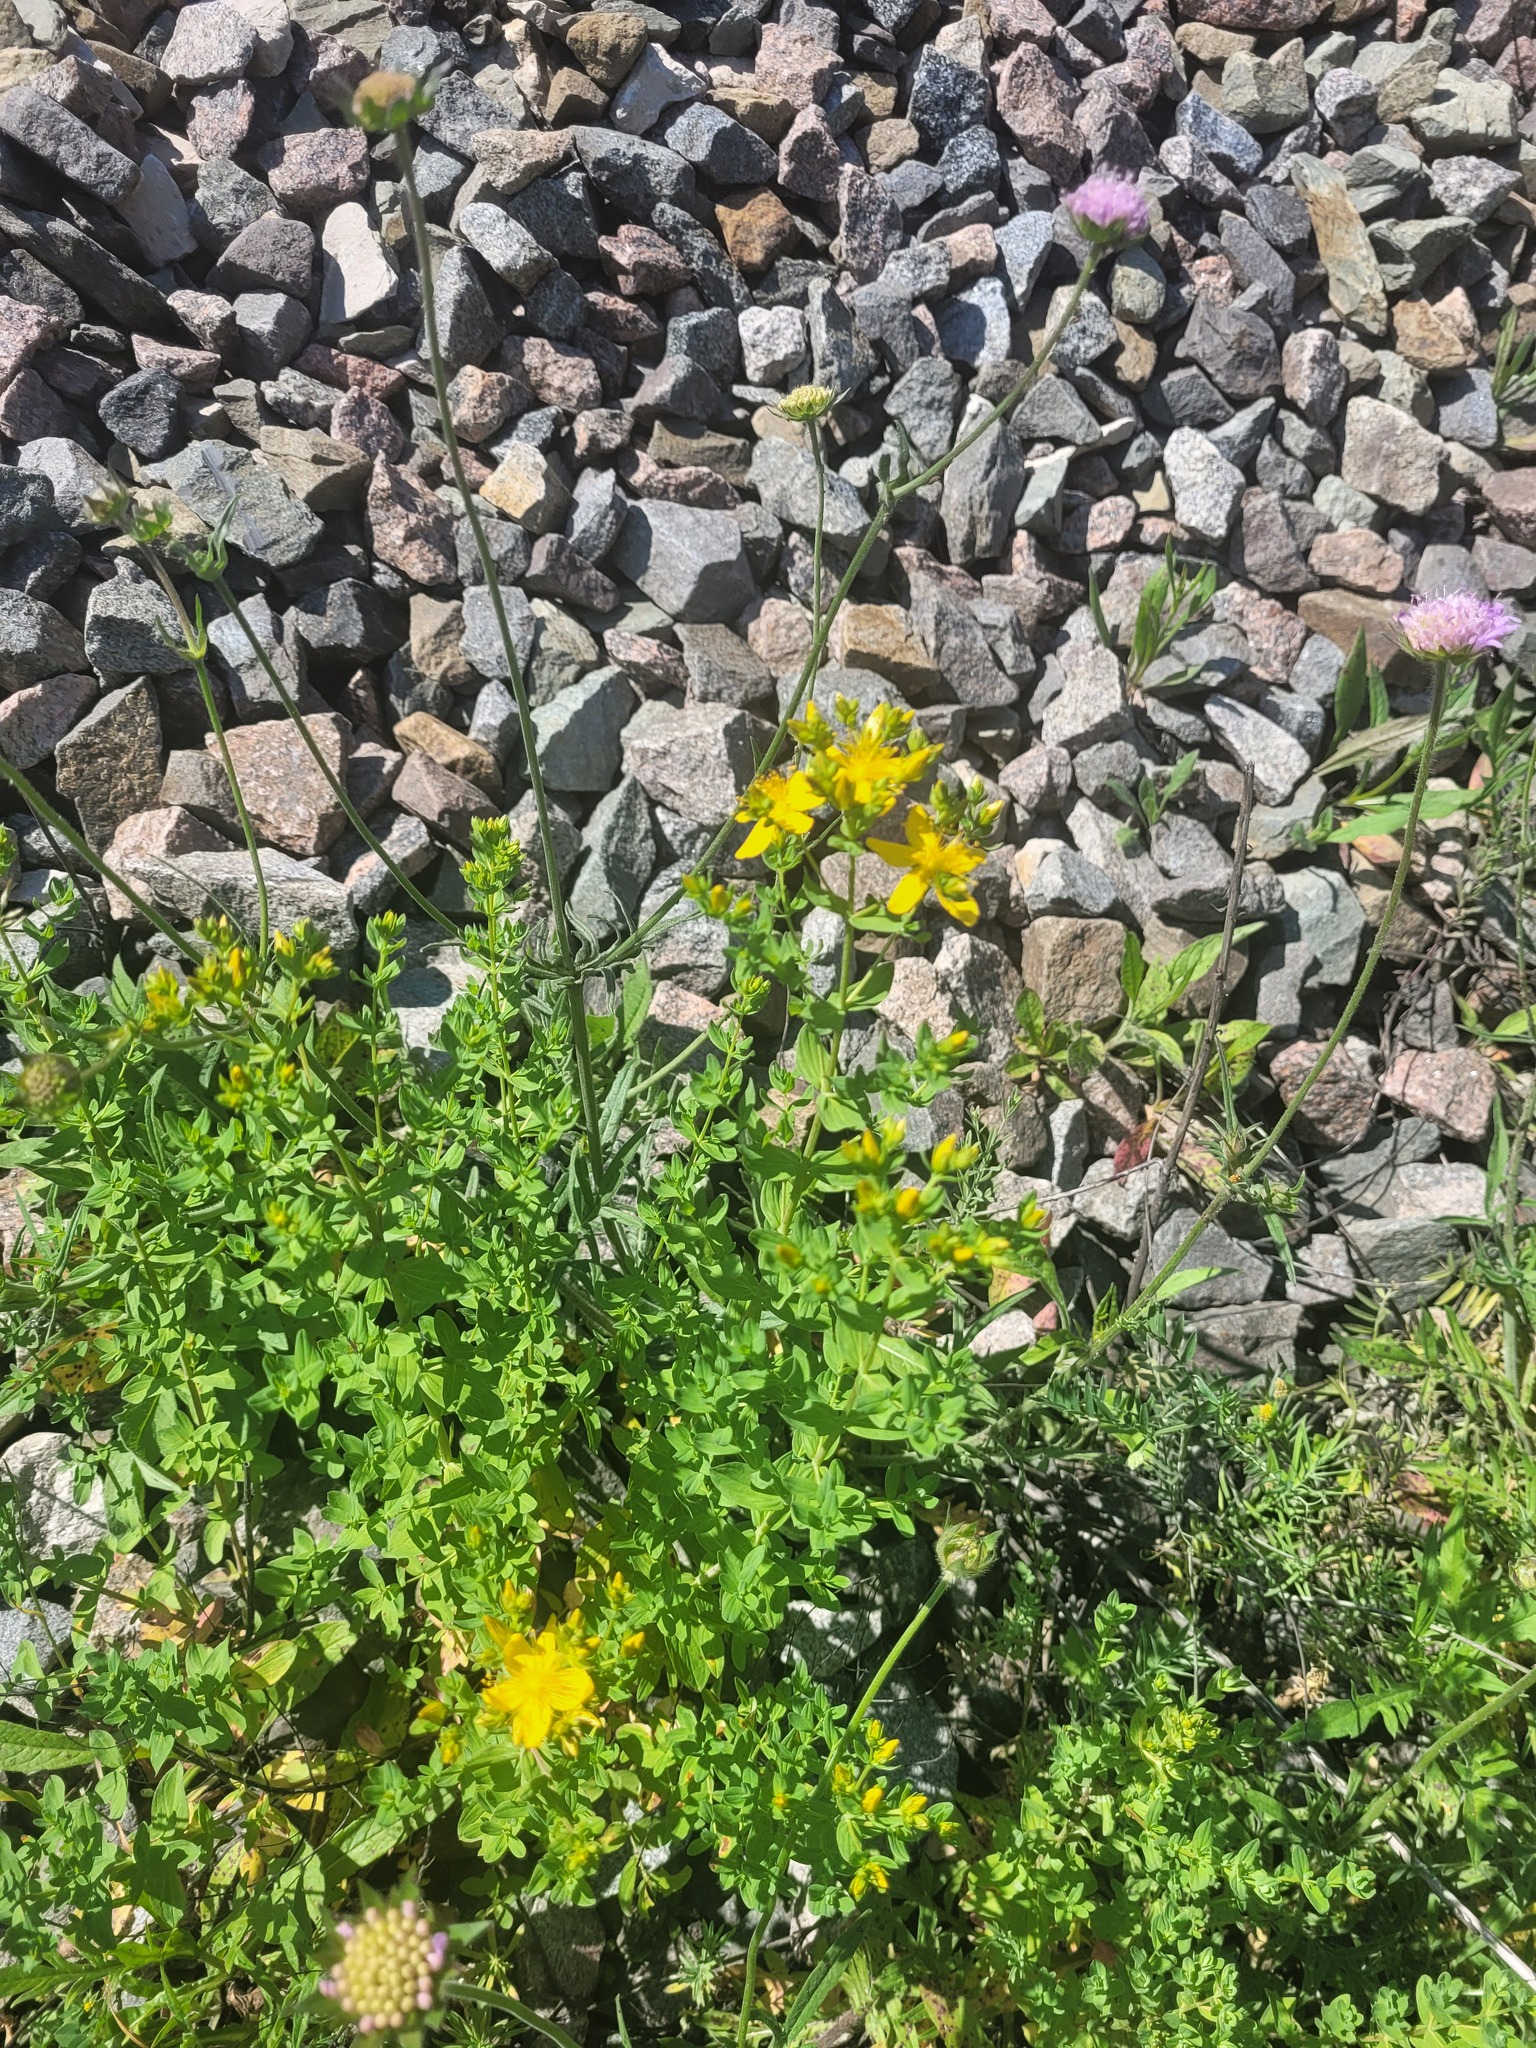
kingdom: Plantae
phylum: Tracheophyta
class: Magnoliopsida
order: Malpighiales
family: Hypericaceae
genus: Hypericum
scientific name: Hypericum perforatum
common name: Common st. johnswort
